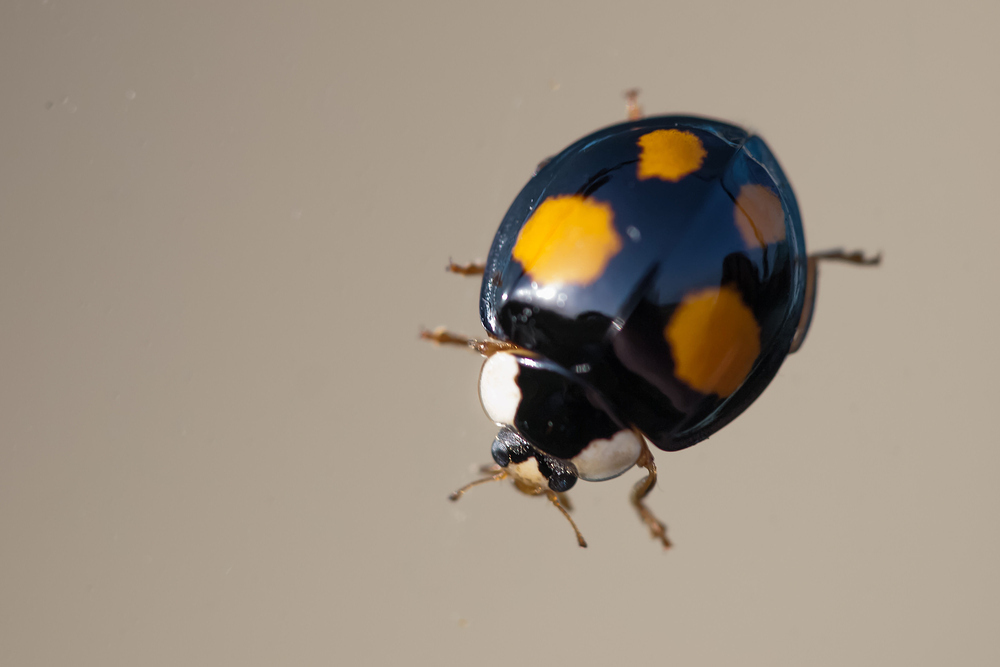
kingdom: Animalia
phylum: Arthropoda
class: Insecta
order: Coleoptera
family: Coccinellidae
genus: Harmonia
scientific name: Harmonia axyridis
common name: Harlequin ladybird
